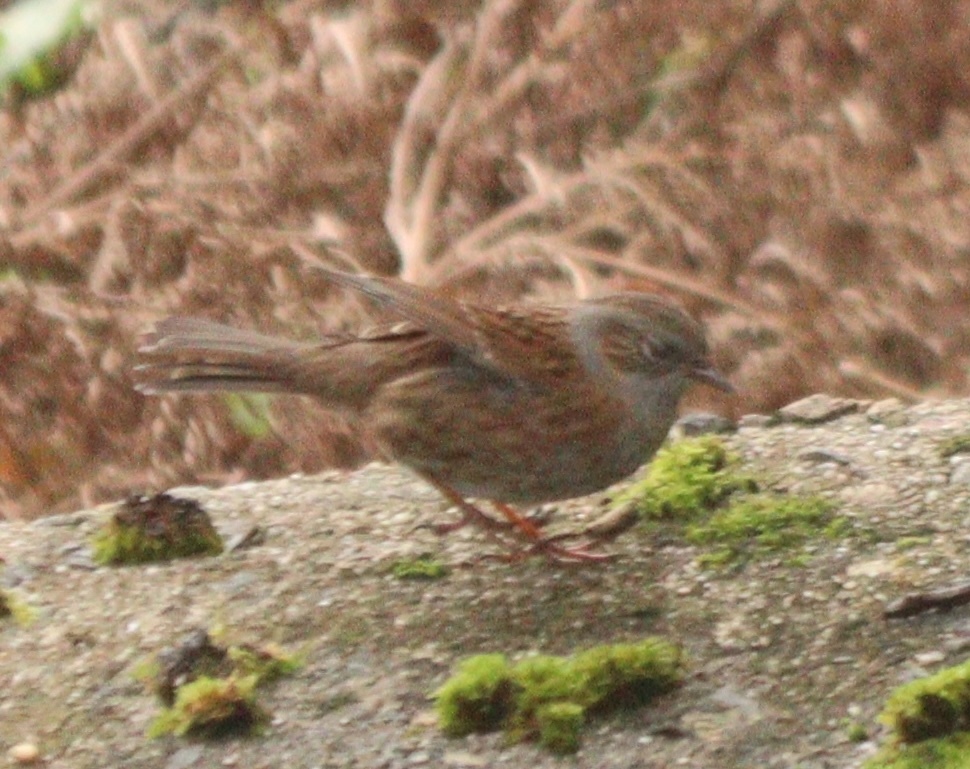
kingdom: Animalia
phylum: Chordata
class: Aves
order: Passeriformes
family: Prunellidae
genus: Prunella
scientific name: Prunella modularis
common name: Dunnock
